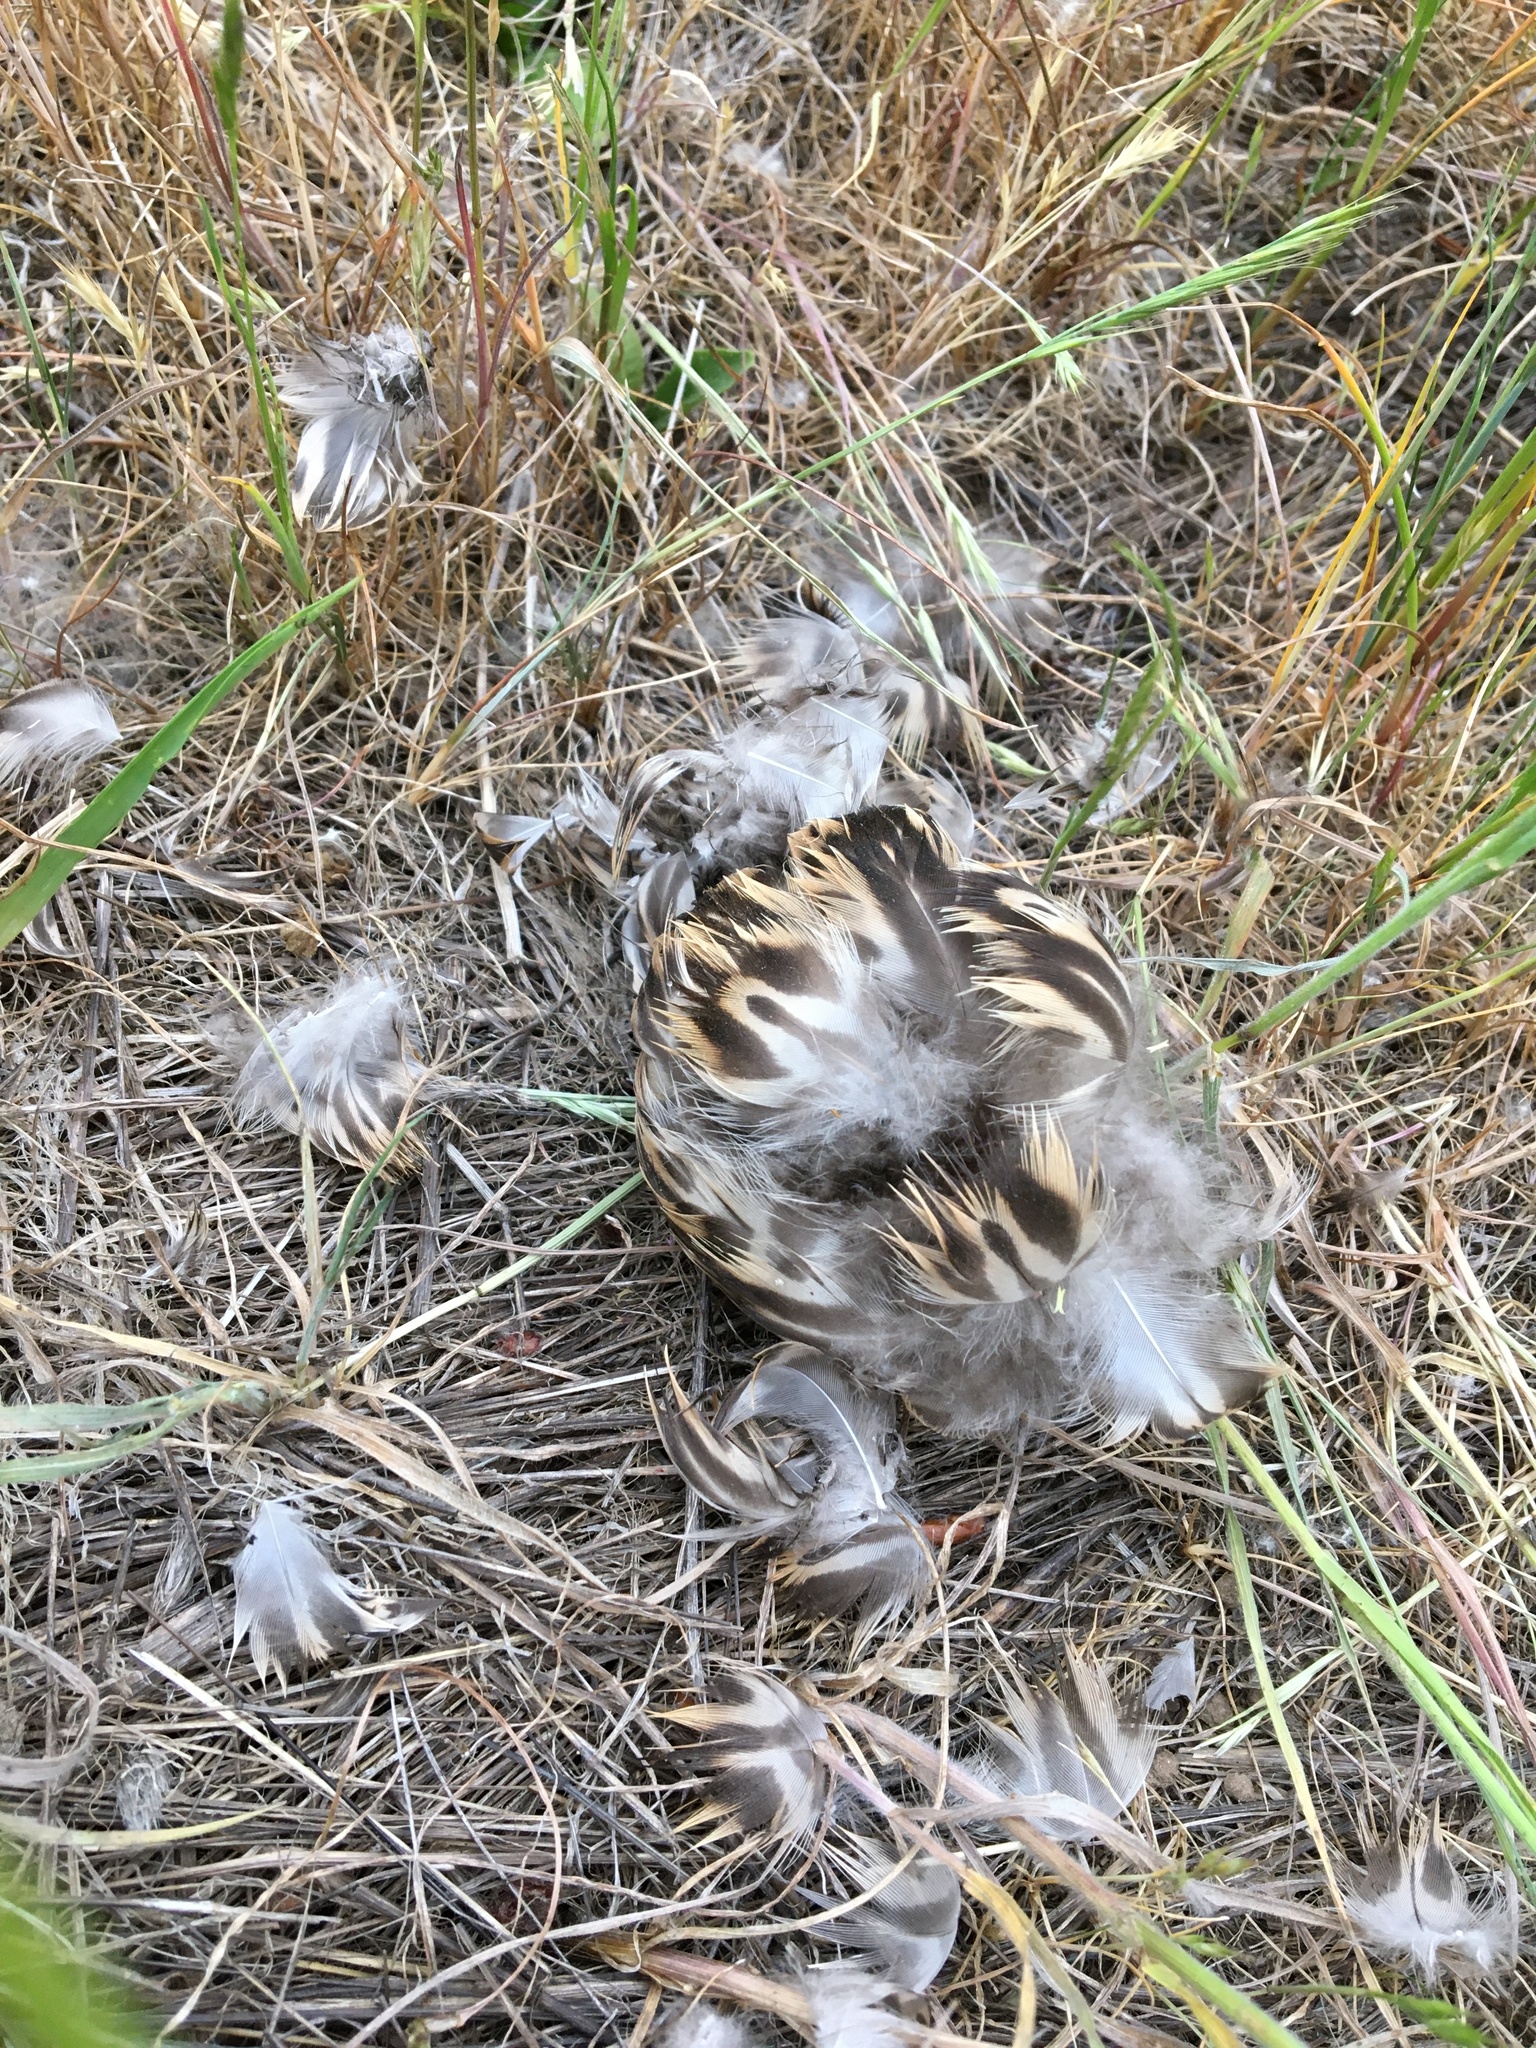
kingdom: Animalia
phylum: Chordata
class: Aves
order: Anseriformes
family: Anatidae
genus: Anas
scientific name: Anas platyrhynchos
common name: Mallard
